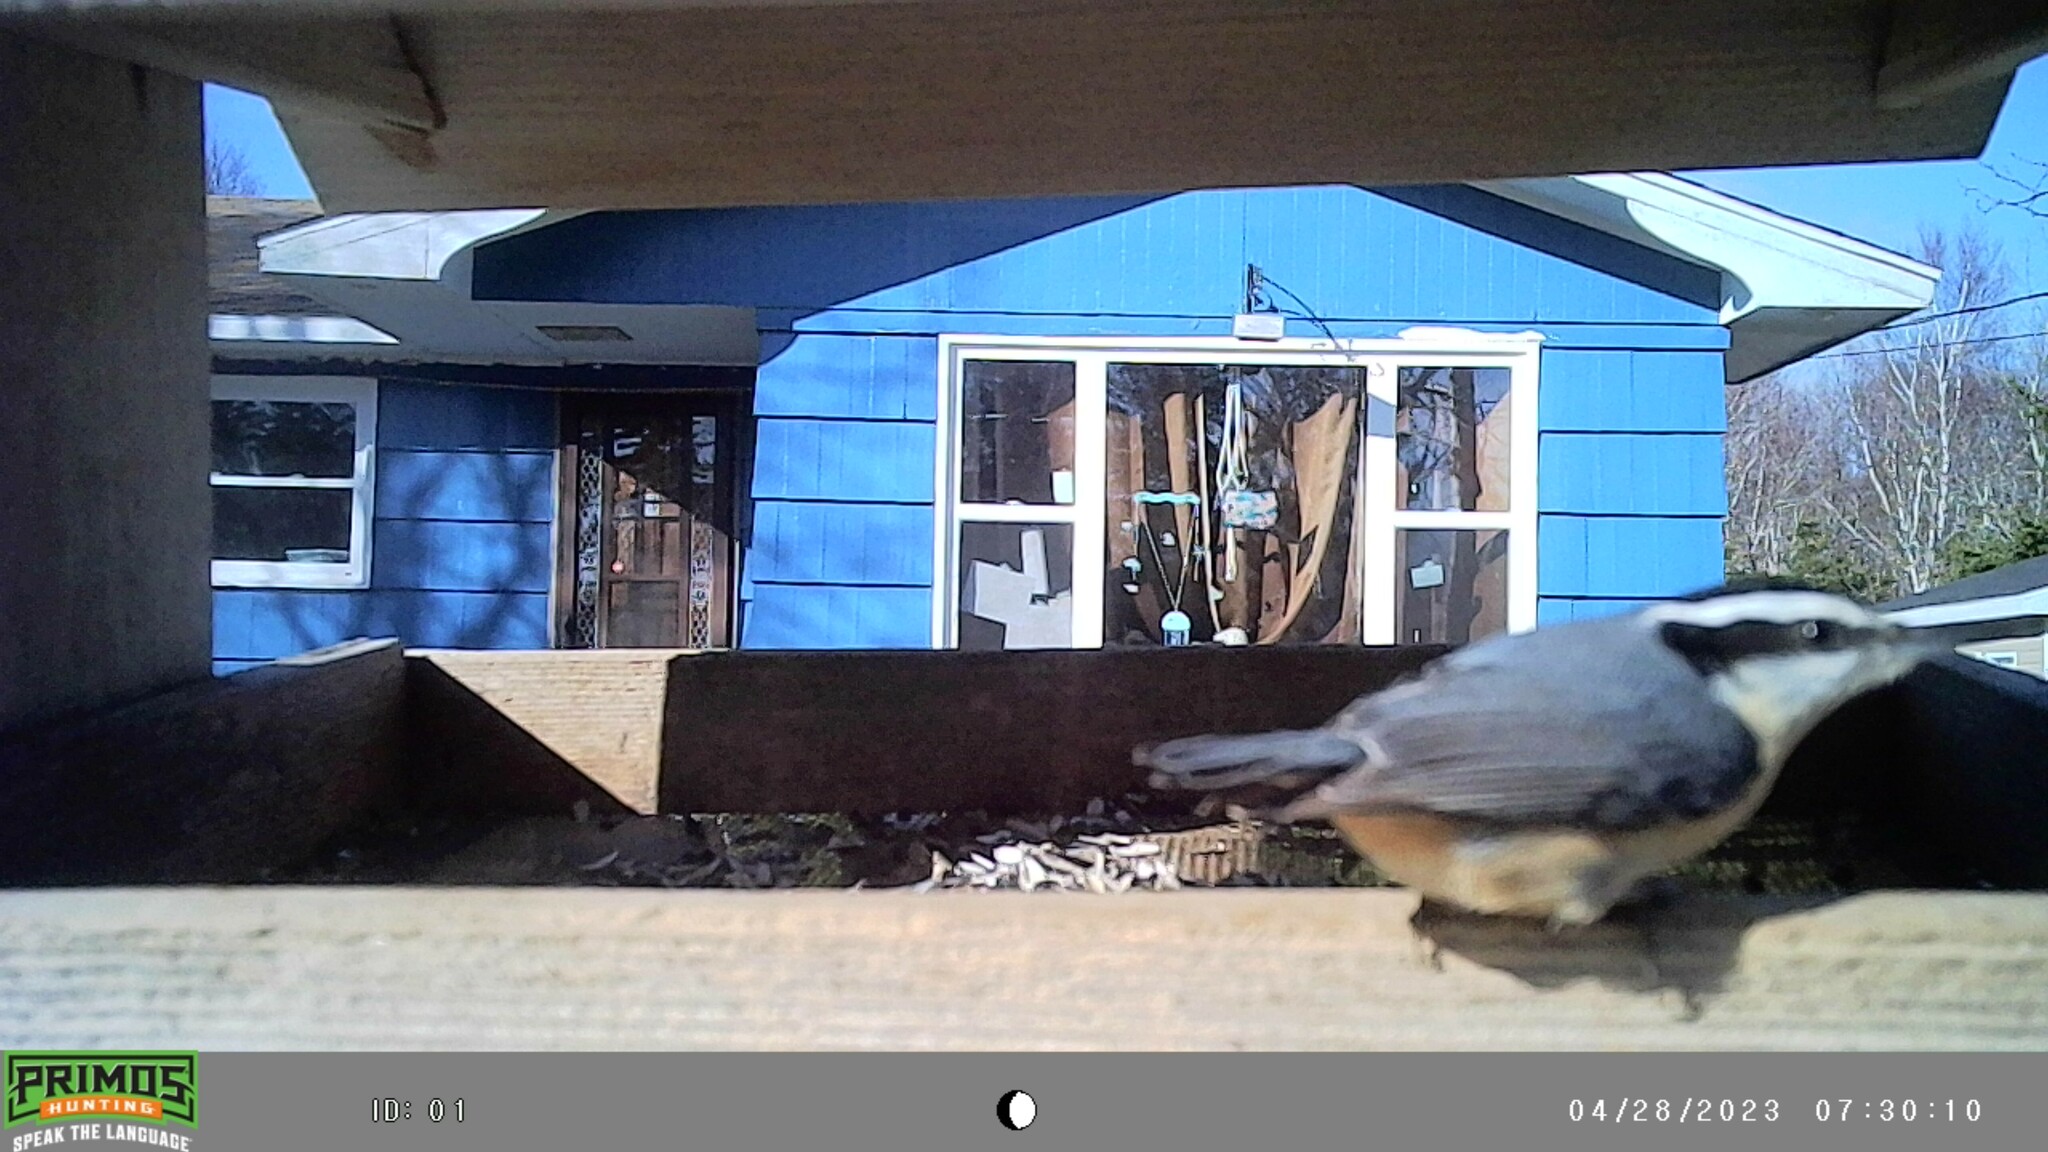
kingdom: Animalia
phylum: Chordata
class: Aves
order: Passeriformes
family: Sittidae
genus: Sitta
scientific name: Sitta canadensis
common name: Red-breasted nuthatch
